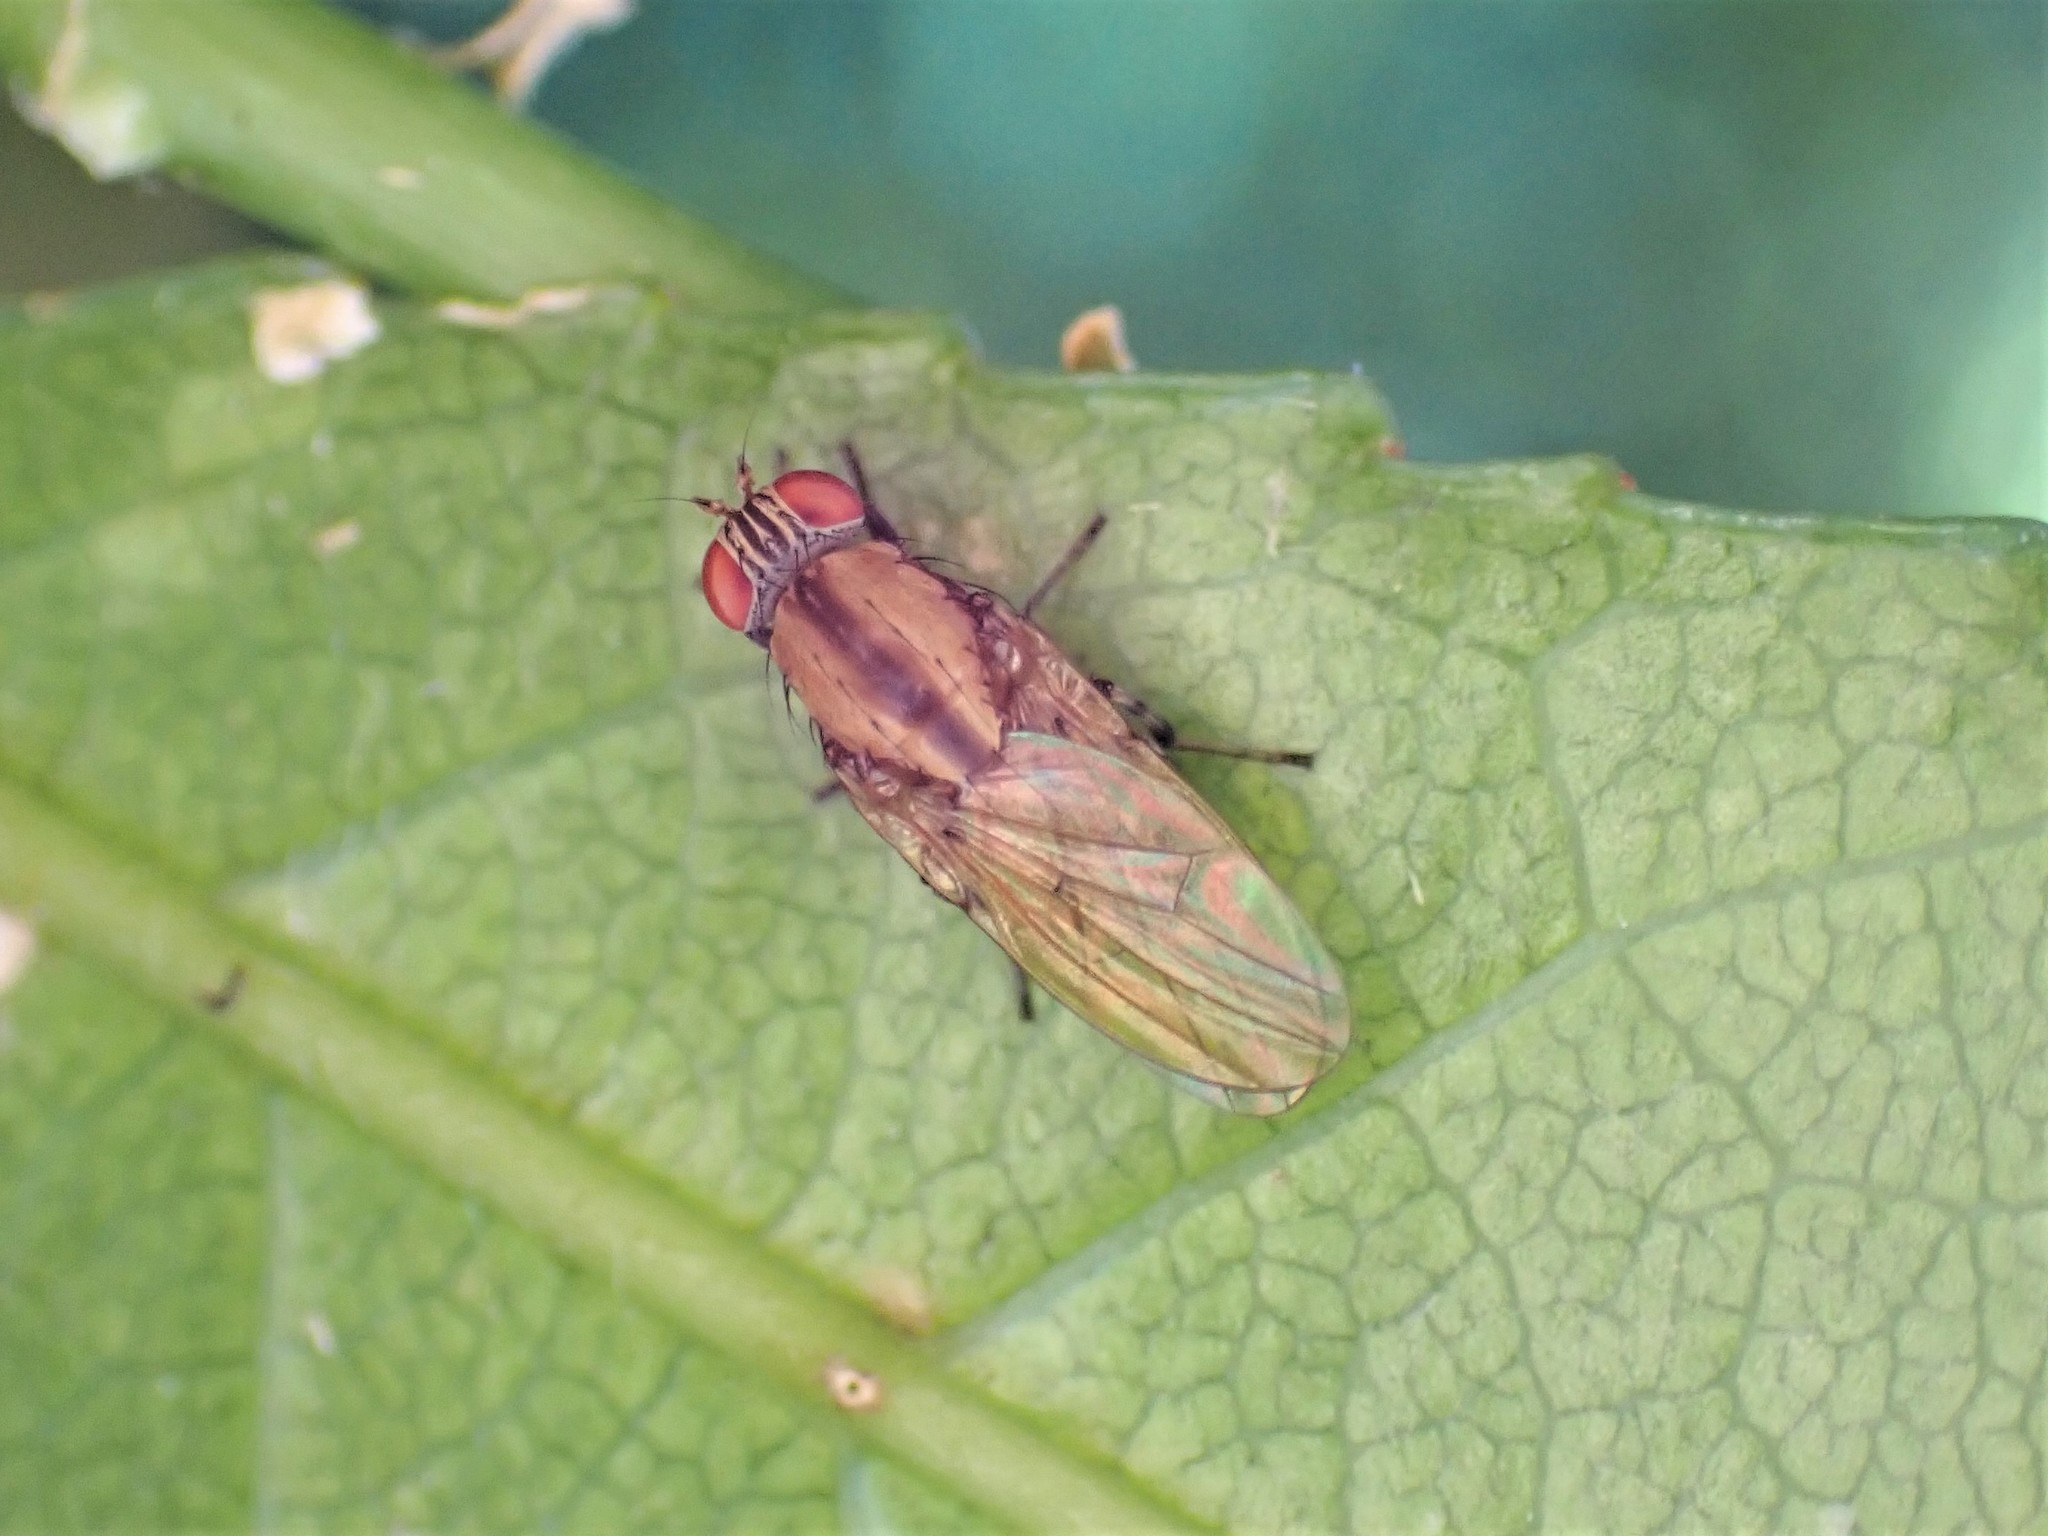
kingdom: Animalia
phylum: Arthropoda
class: Insecta
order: Diptera
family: Lauxaniidae
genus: Sapromyza
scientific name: Sapromyza neozelandica
